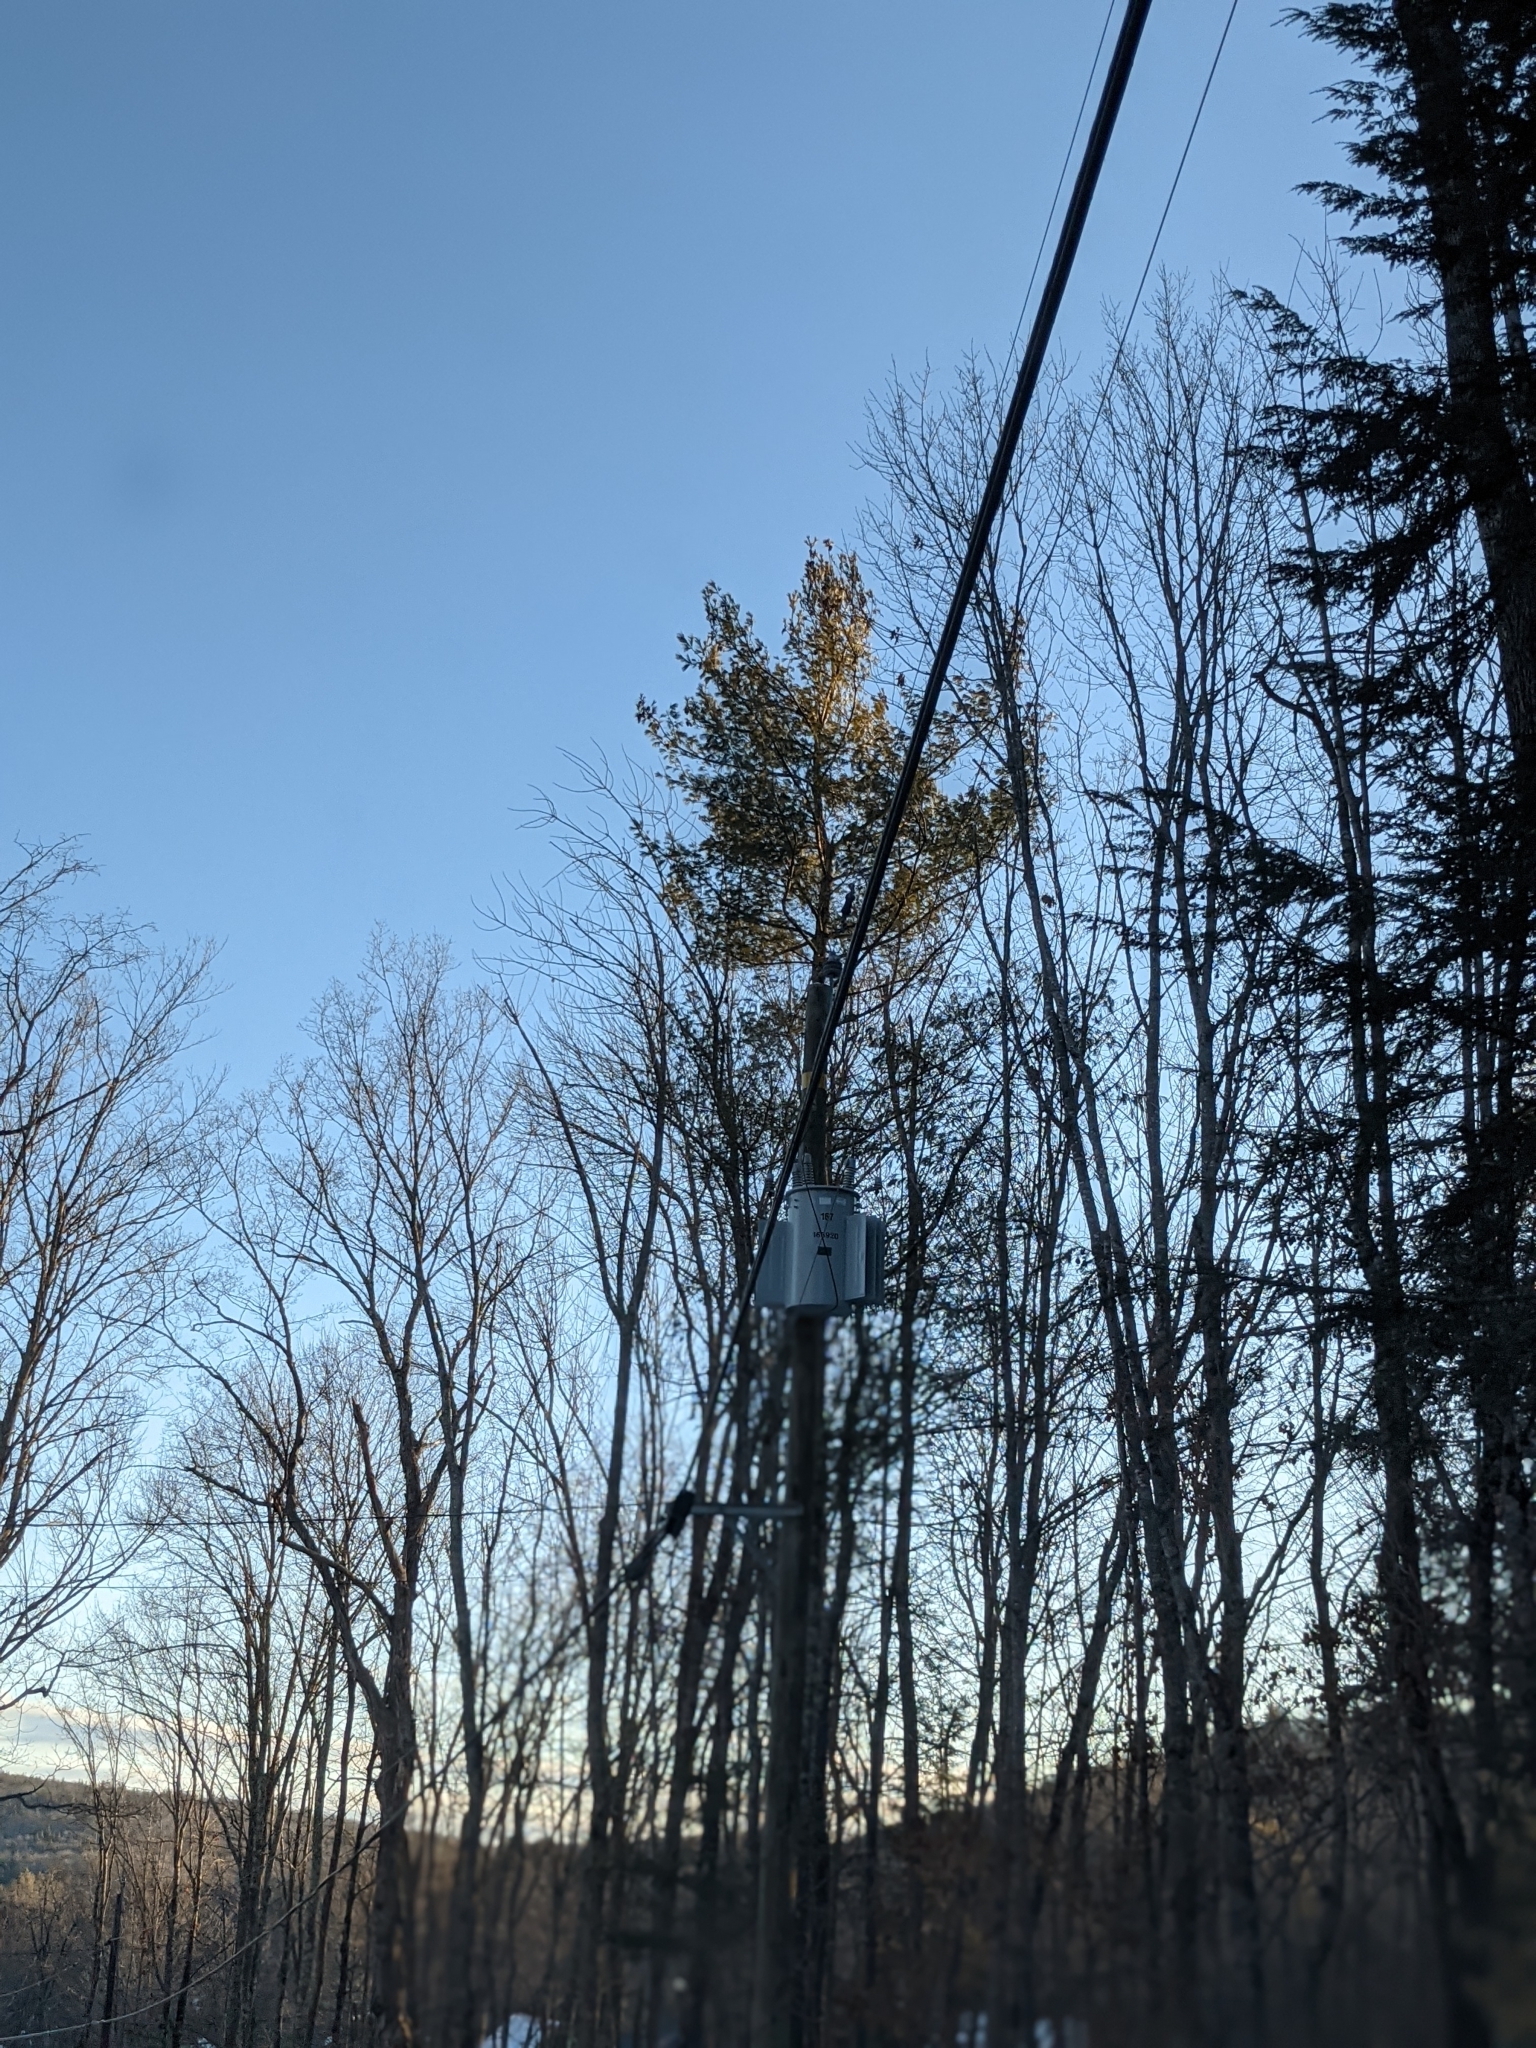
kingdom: Plantae
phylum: Tracheophyta
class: Pinopsida
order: Pinales
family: Pinaceae
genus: Pinus
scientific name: Pinus strobus
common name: Weymouth pine
